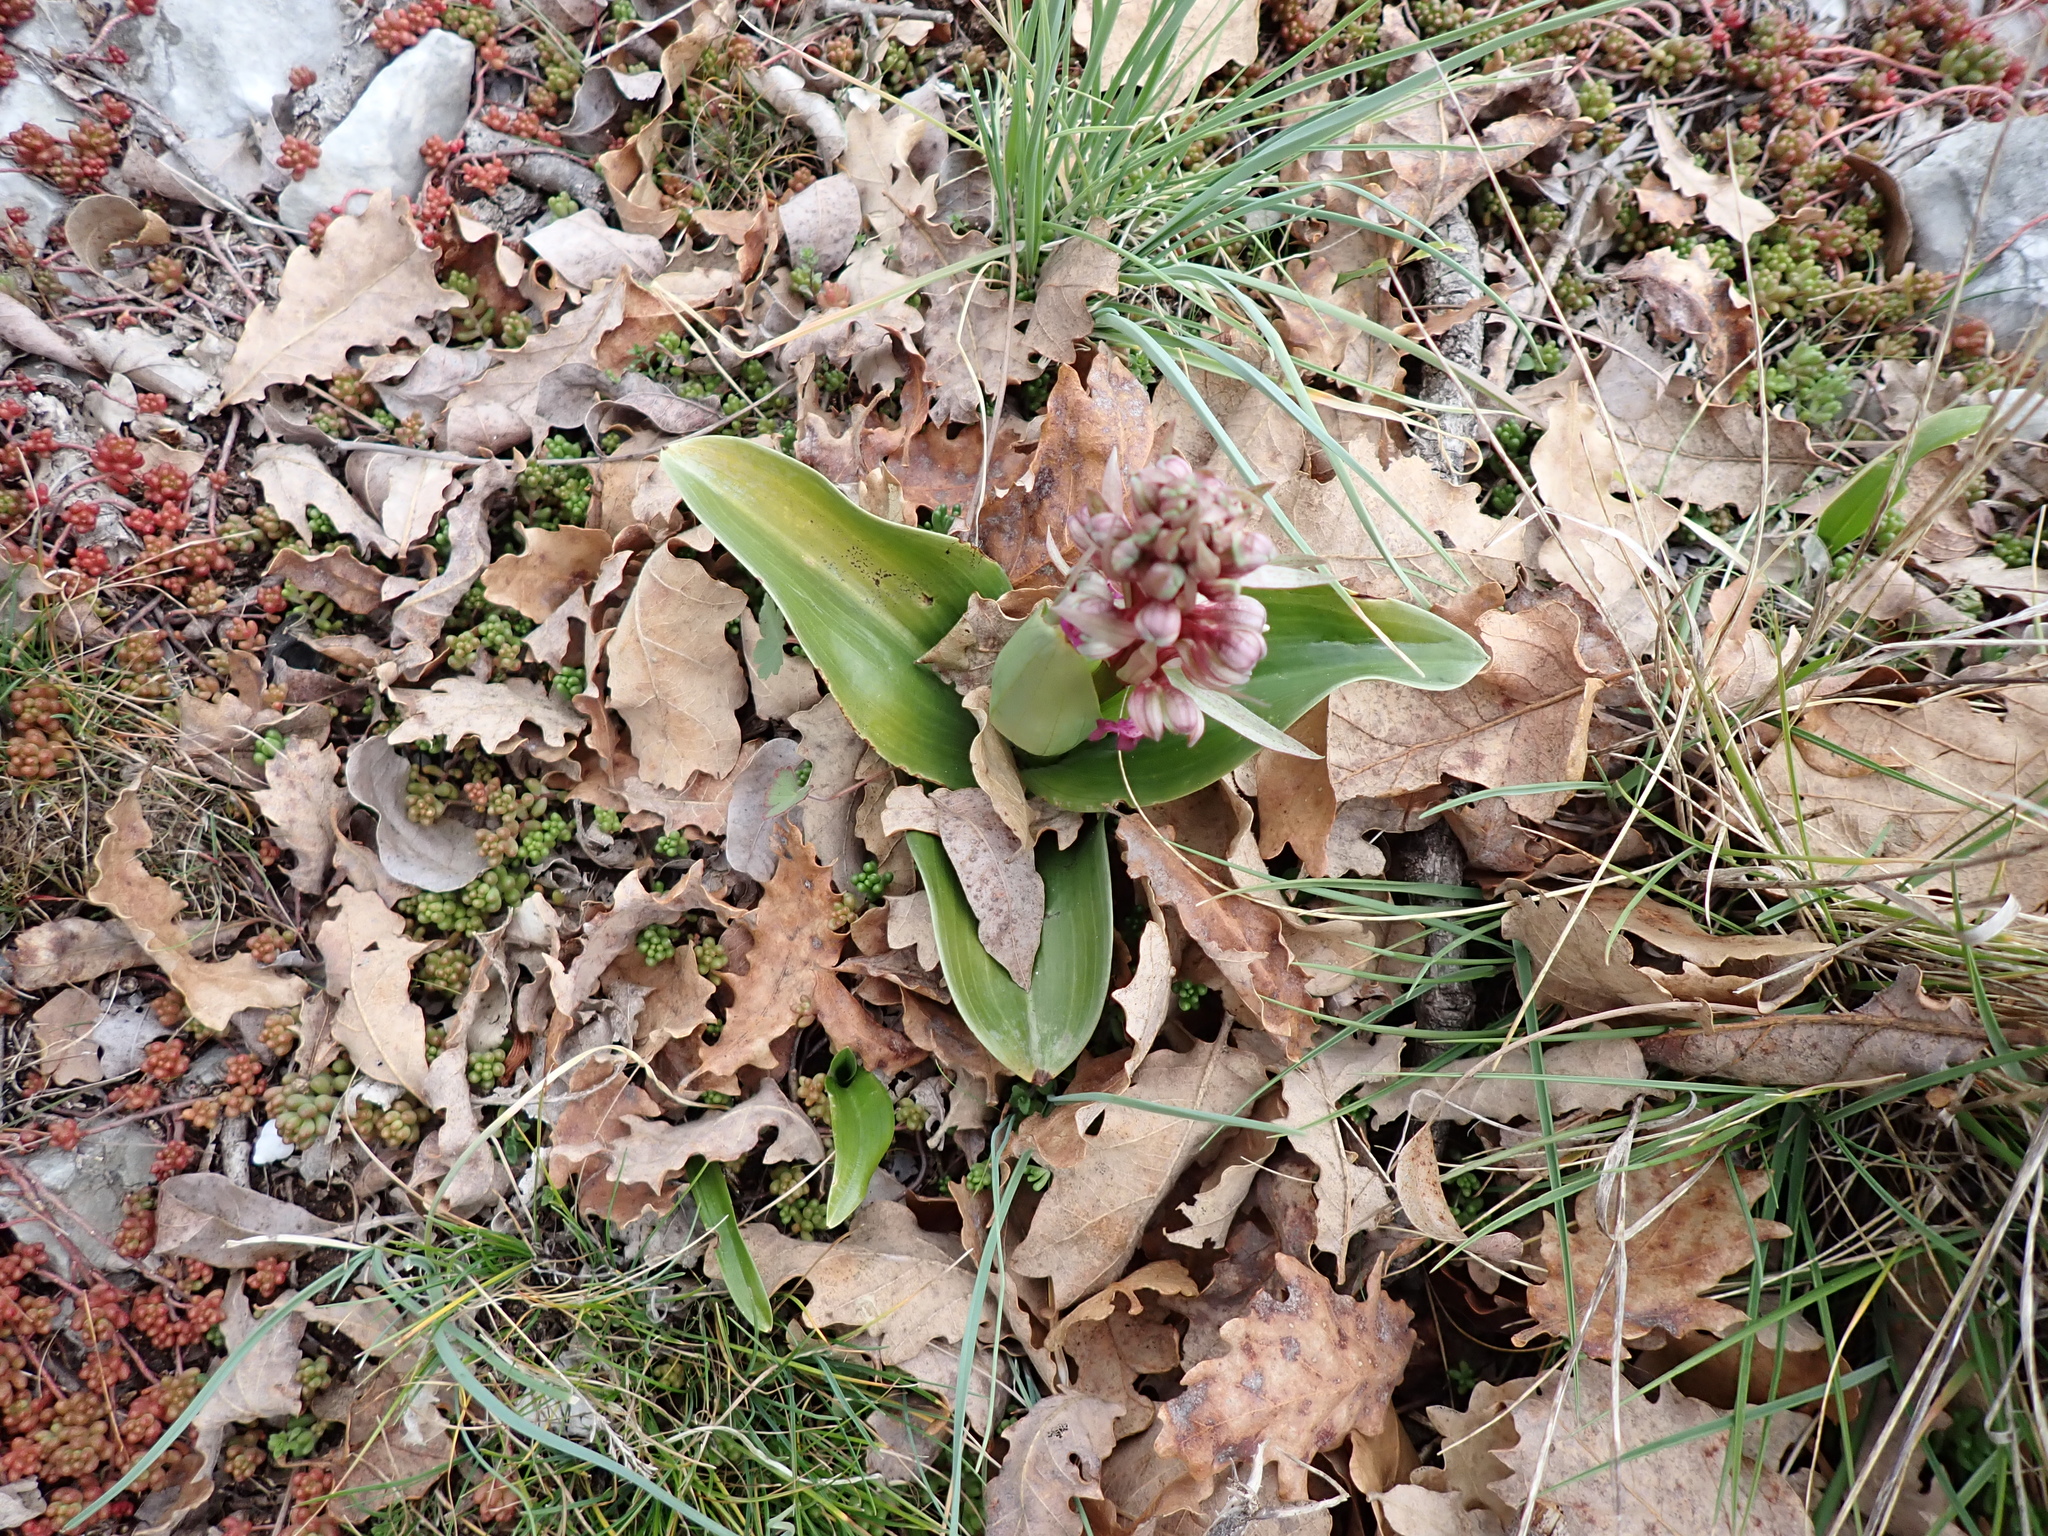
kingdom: Plantae
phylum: Tracheophyta
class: Liliopsida
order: Asparagales
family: Orchidaceae
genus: Himantoglossum
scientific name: Himantoglossum robertianum
